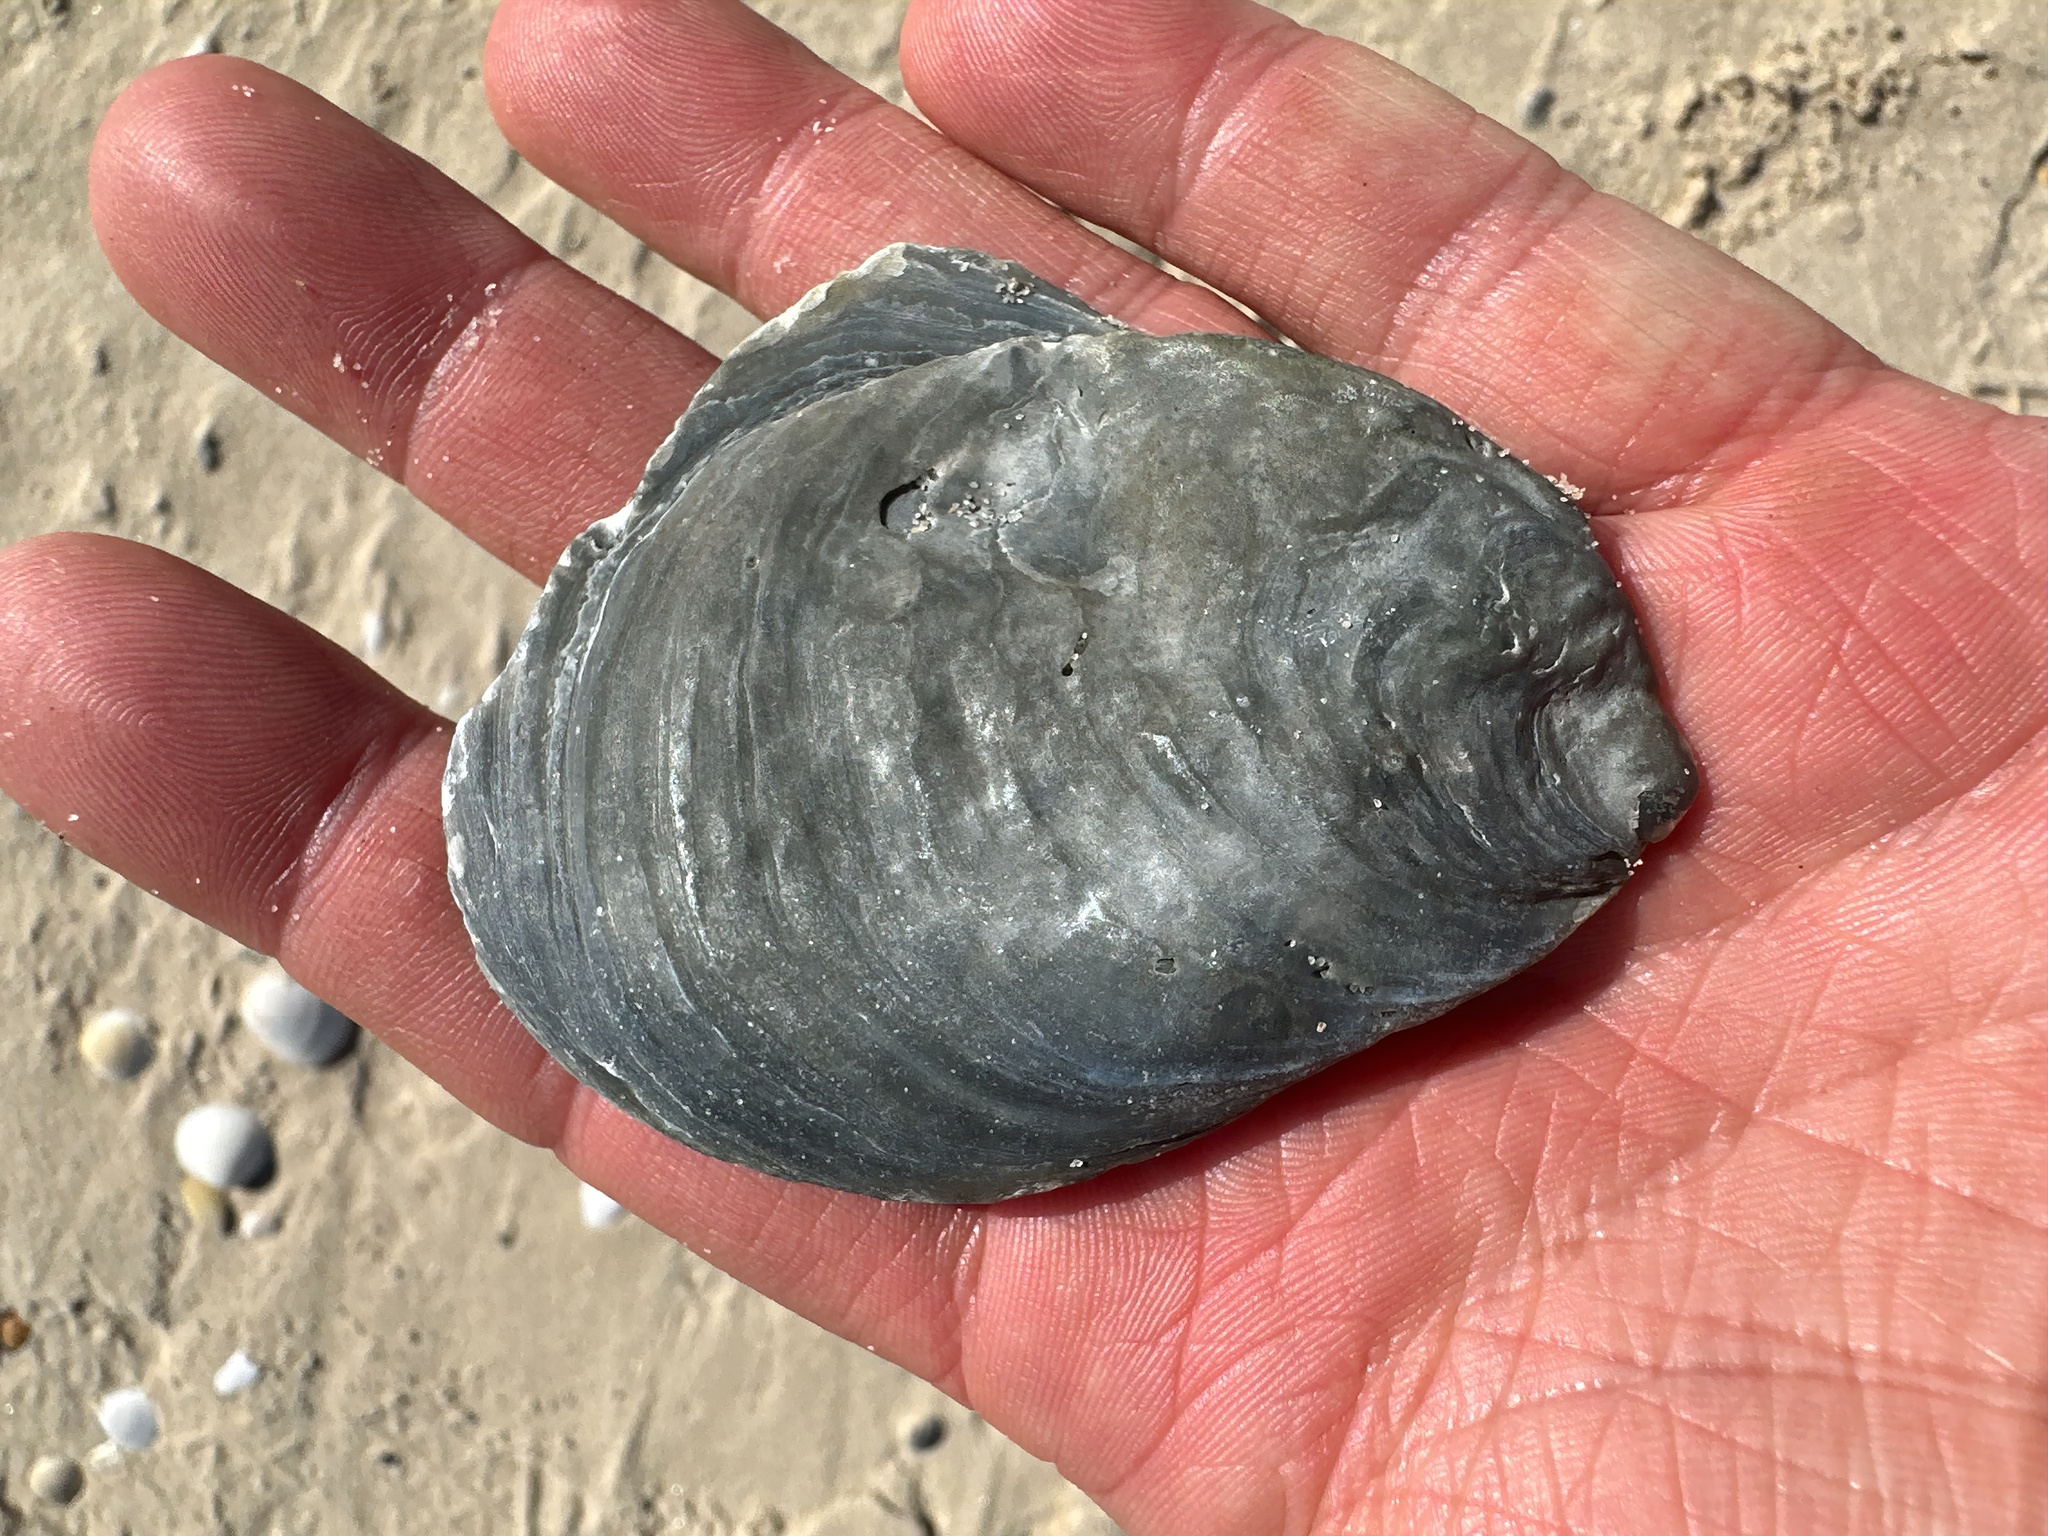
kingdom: Animalia
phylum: Mollusca
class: Bivalvia
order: Ostreida
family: Ostreidae
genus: Ostrea
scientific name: Ostrea angasi
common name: Angasi oyster
